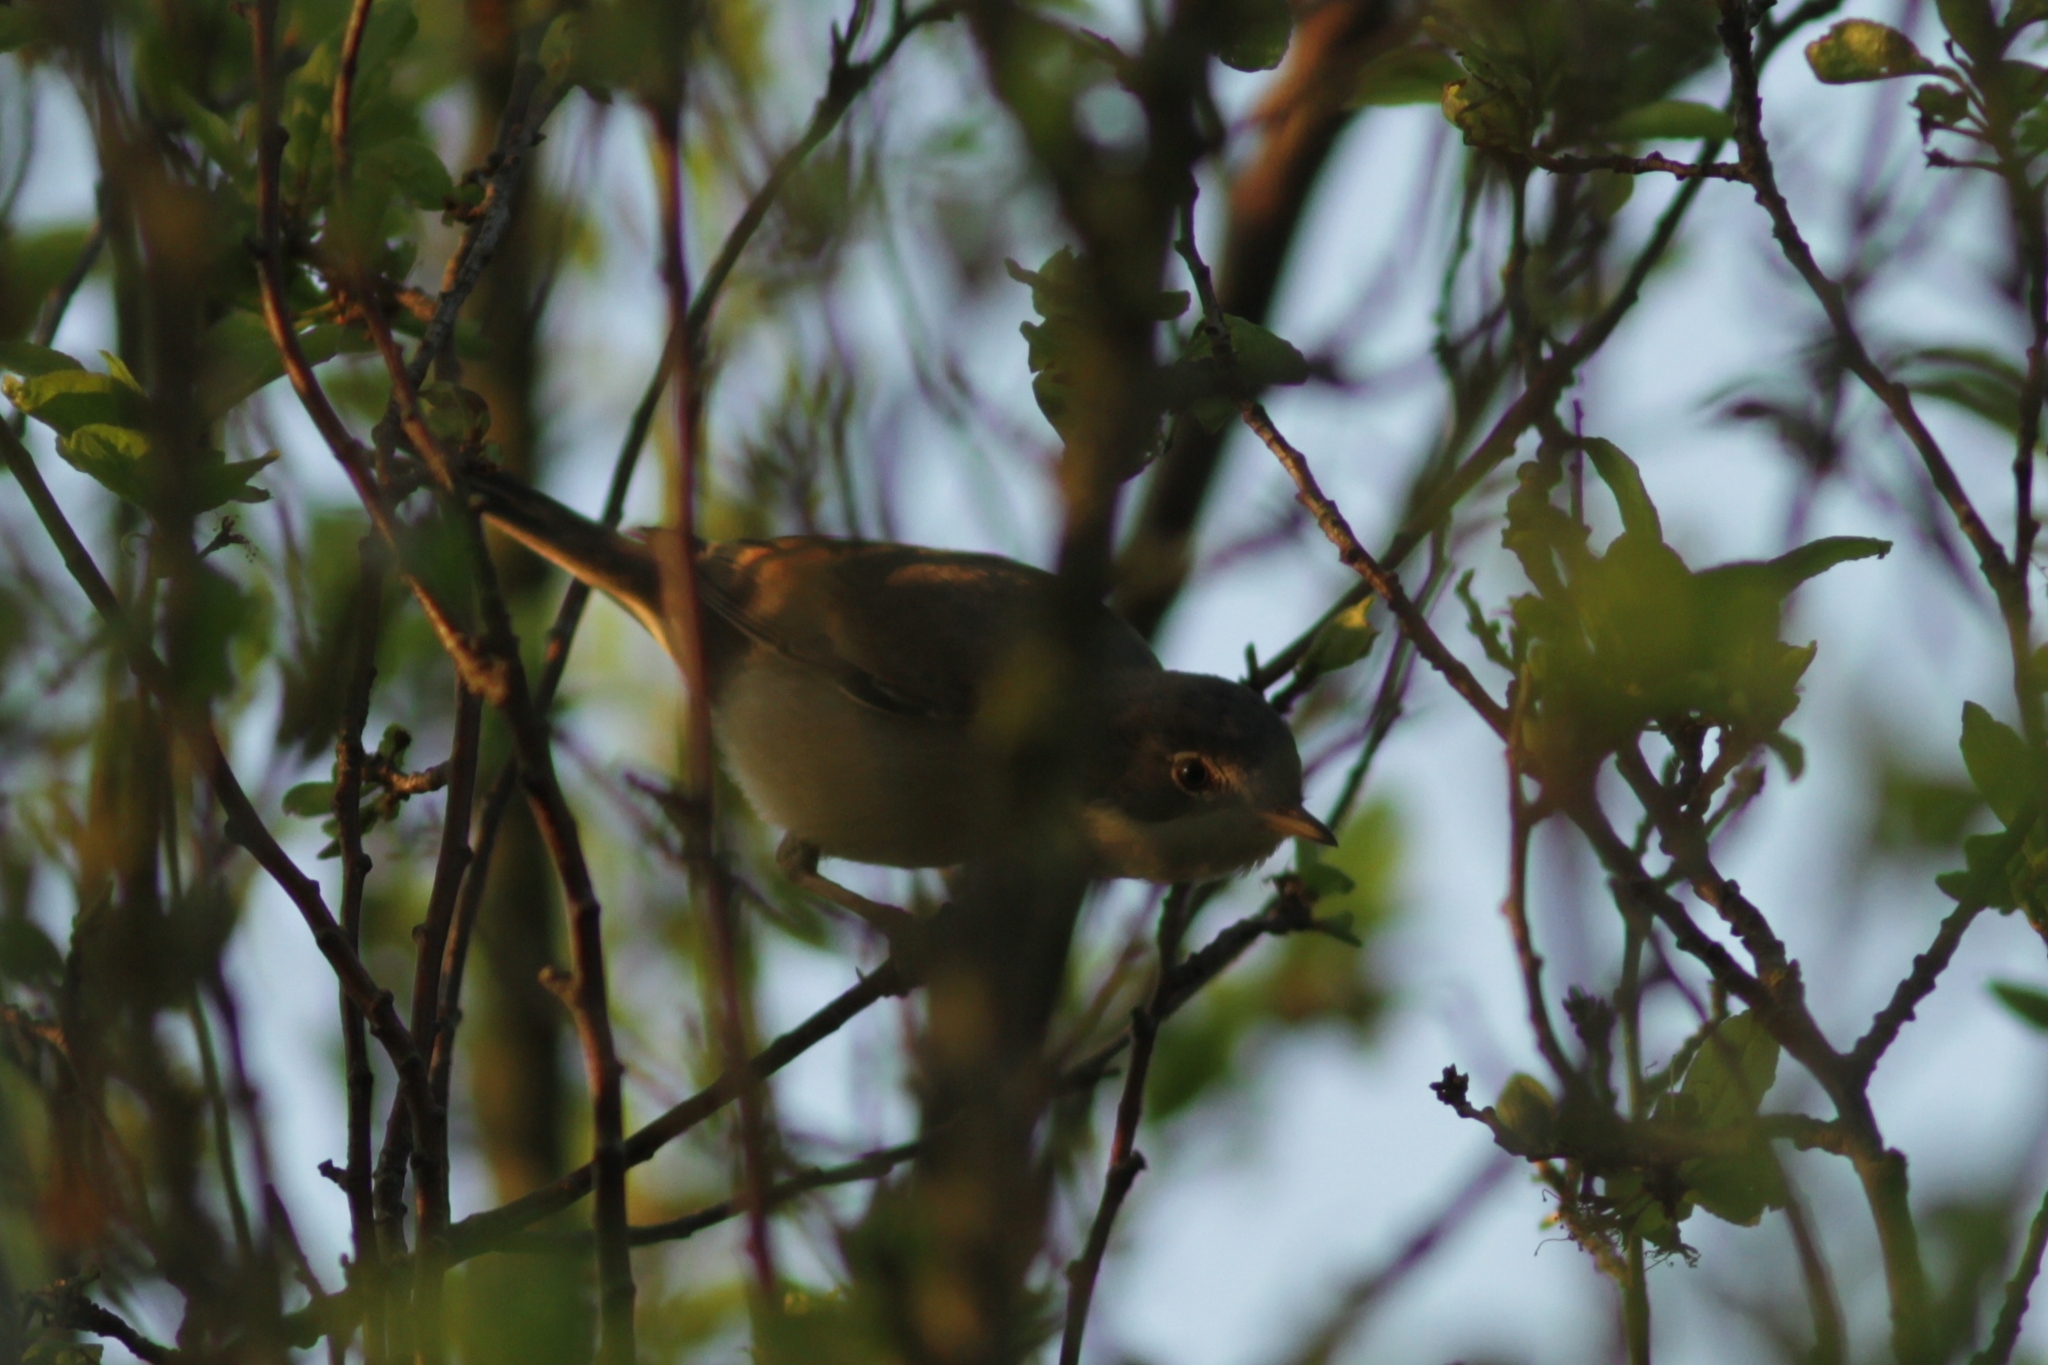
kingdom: Animalia
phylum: Chordata
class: Aves
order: Passeriformes
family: Sylviidae
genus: Sylvia
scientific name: Sylvia communis
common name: Common whitethroat
